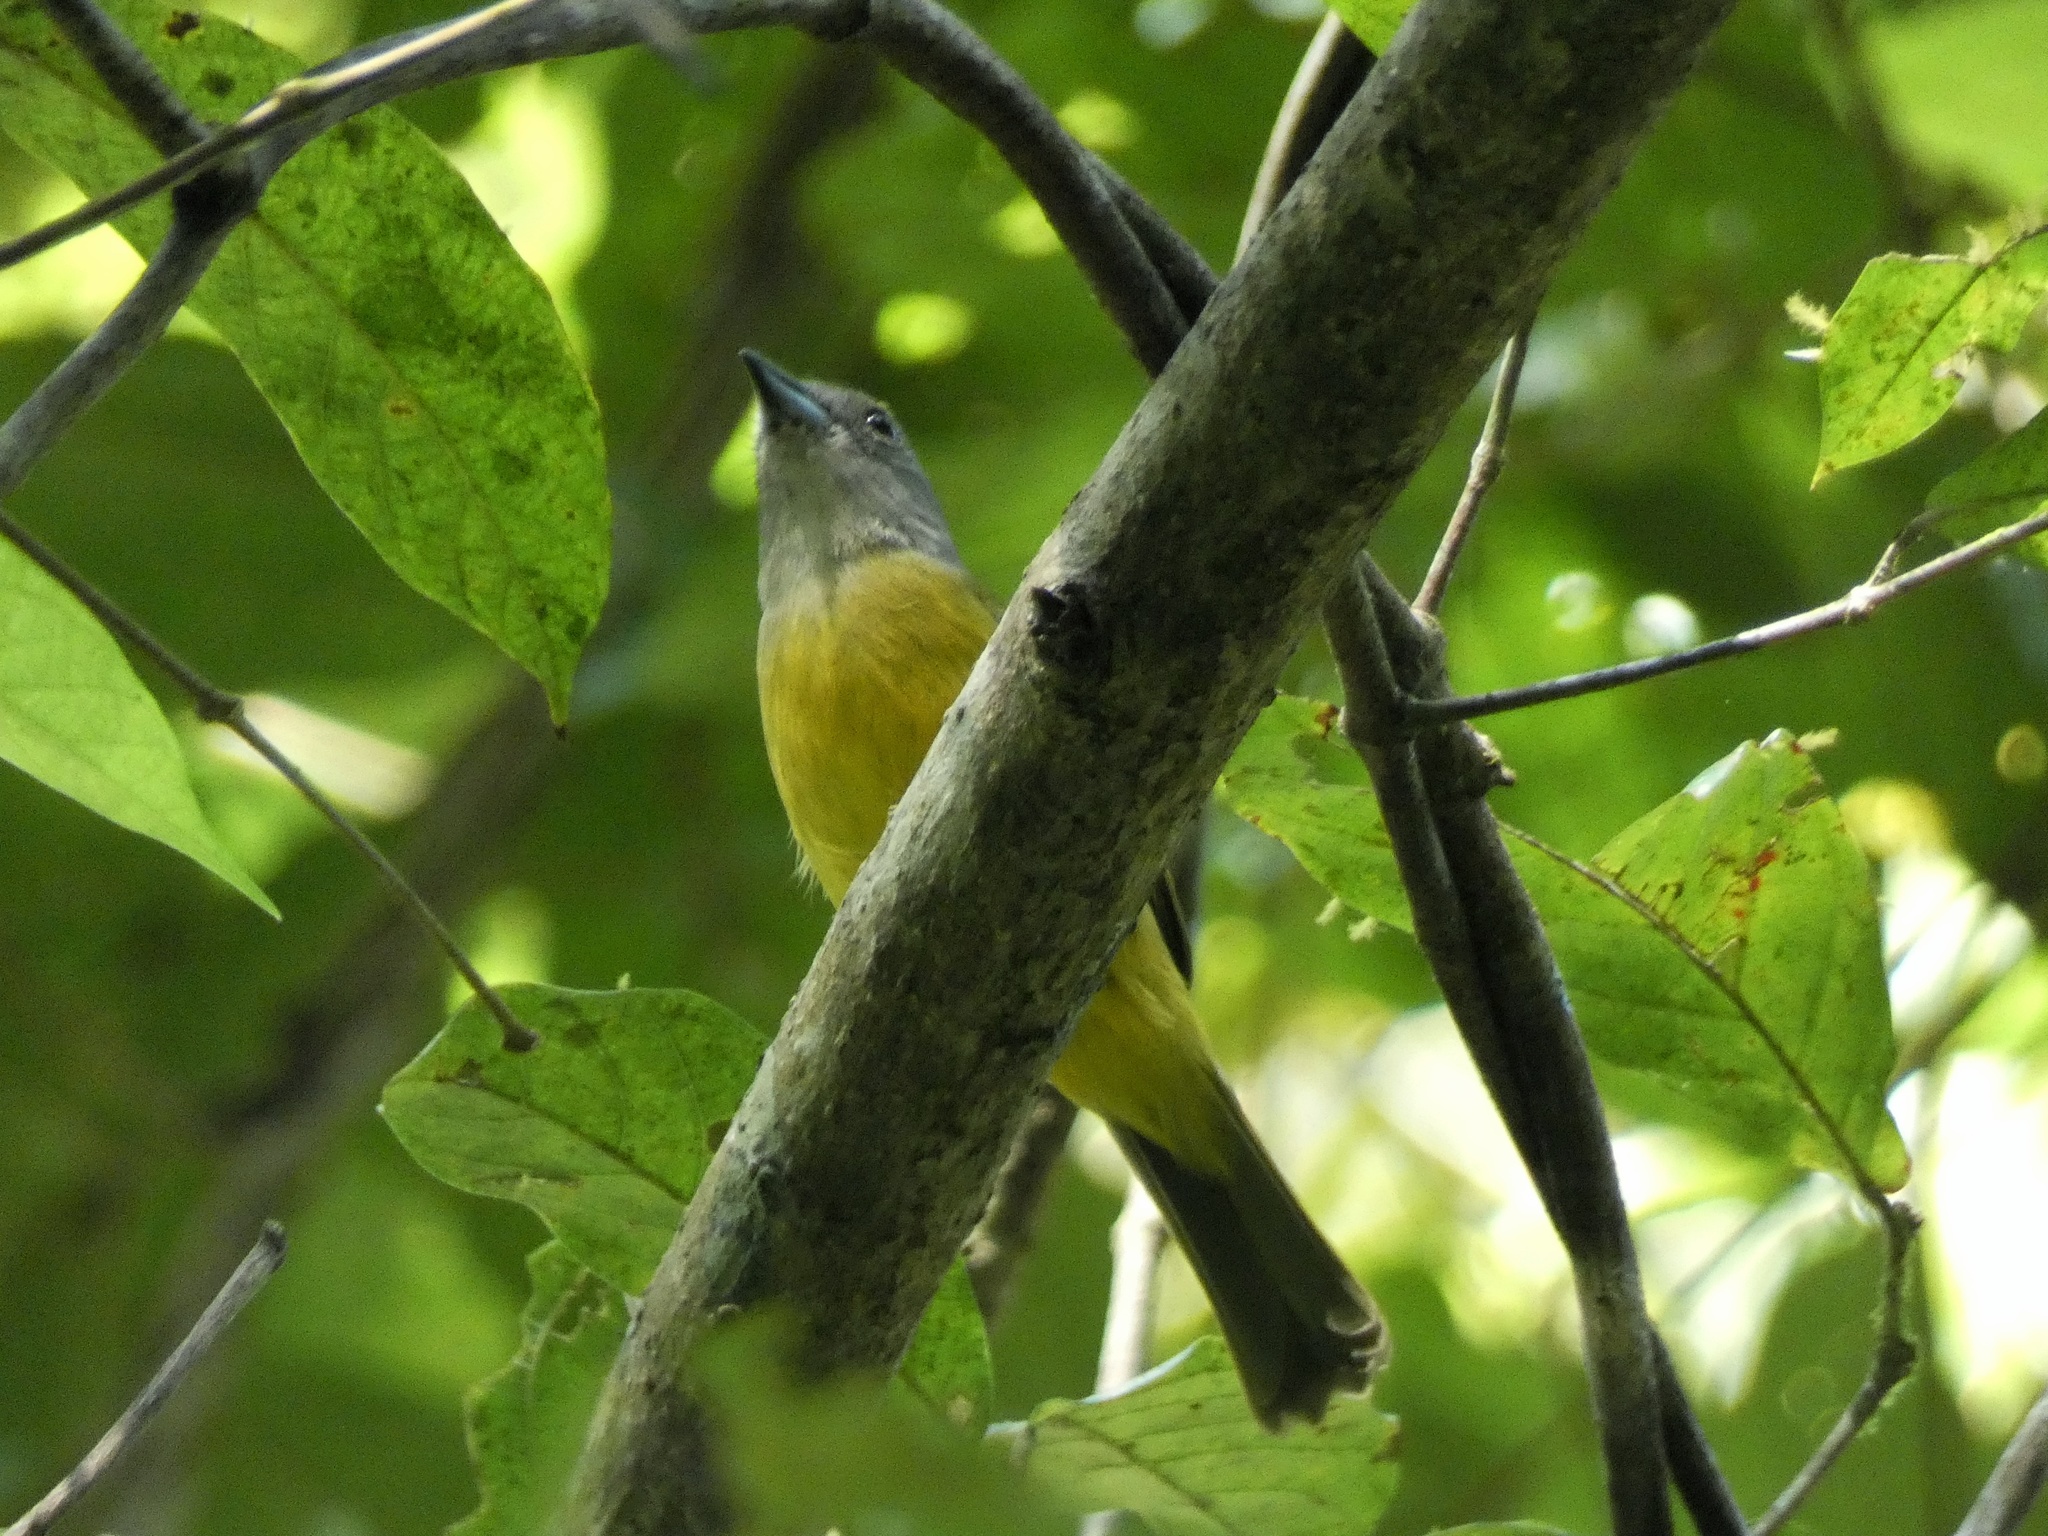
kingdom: Animalia
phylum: Chordata
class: Aves
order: Passeriformes
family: Thraupidae
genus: Loriotus
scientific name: Loriotus luctuosus
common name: White-shouldered tanager
